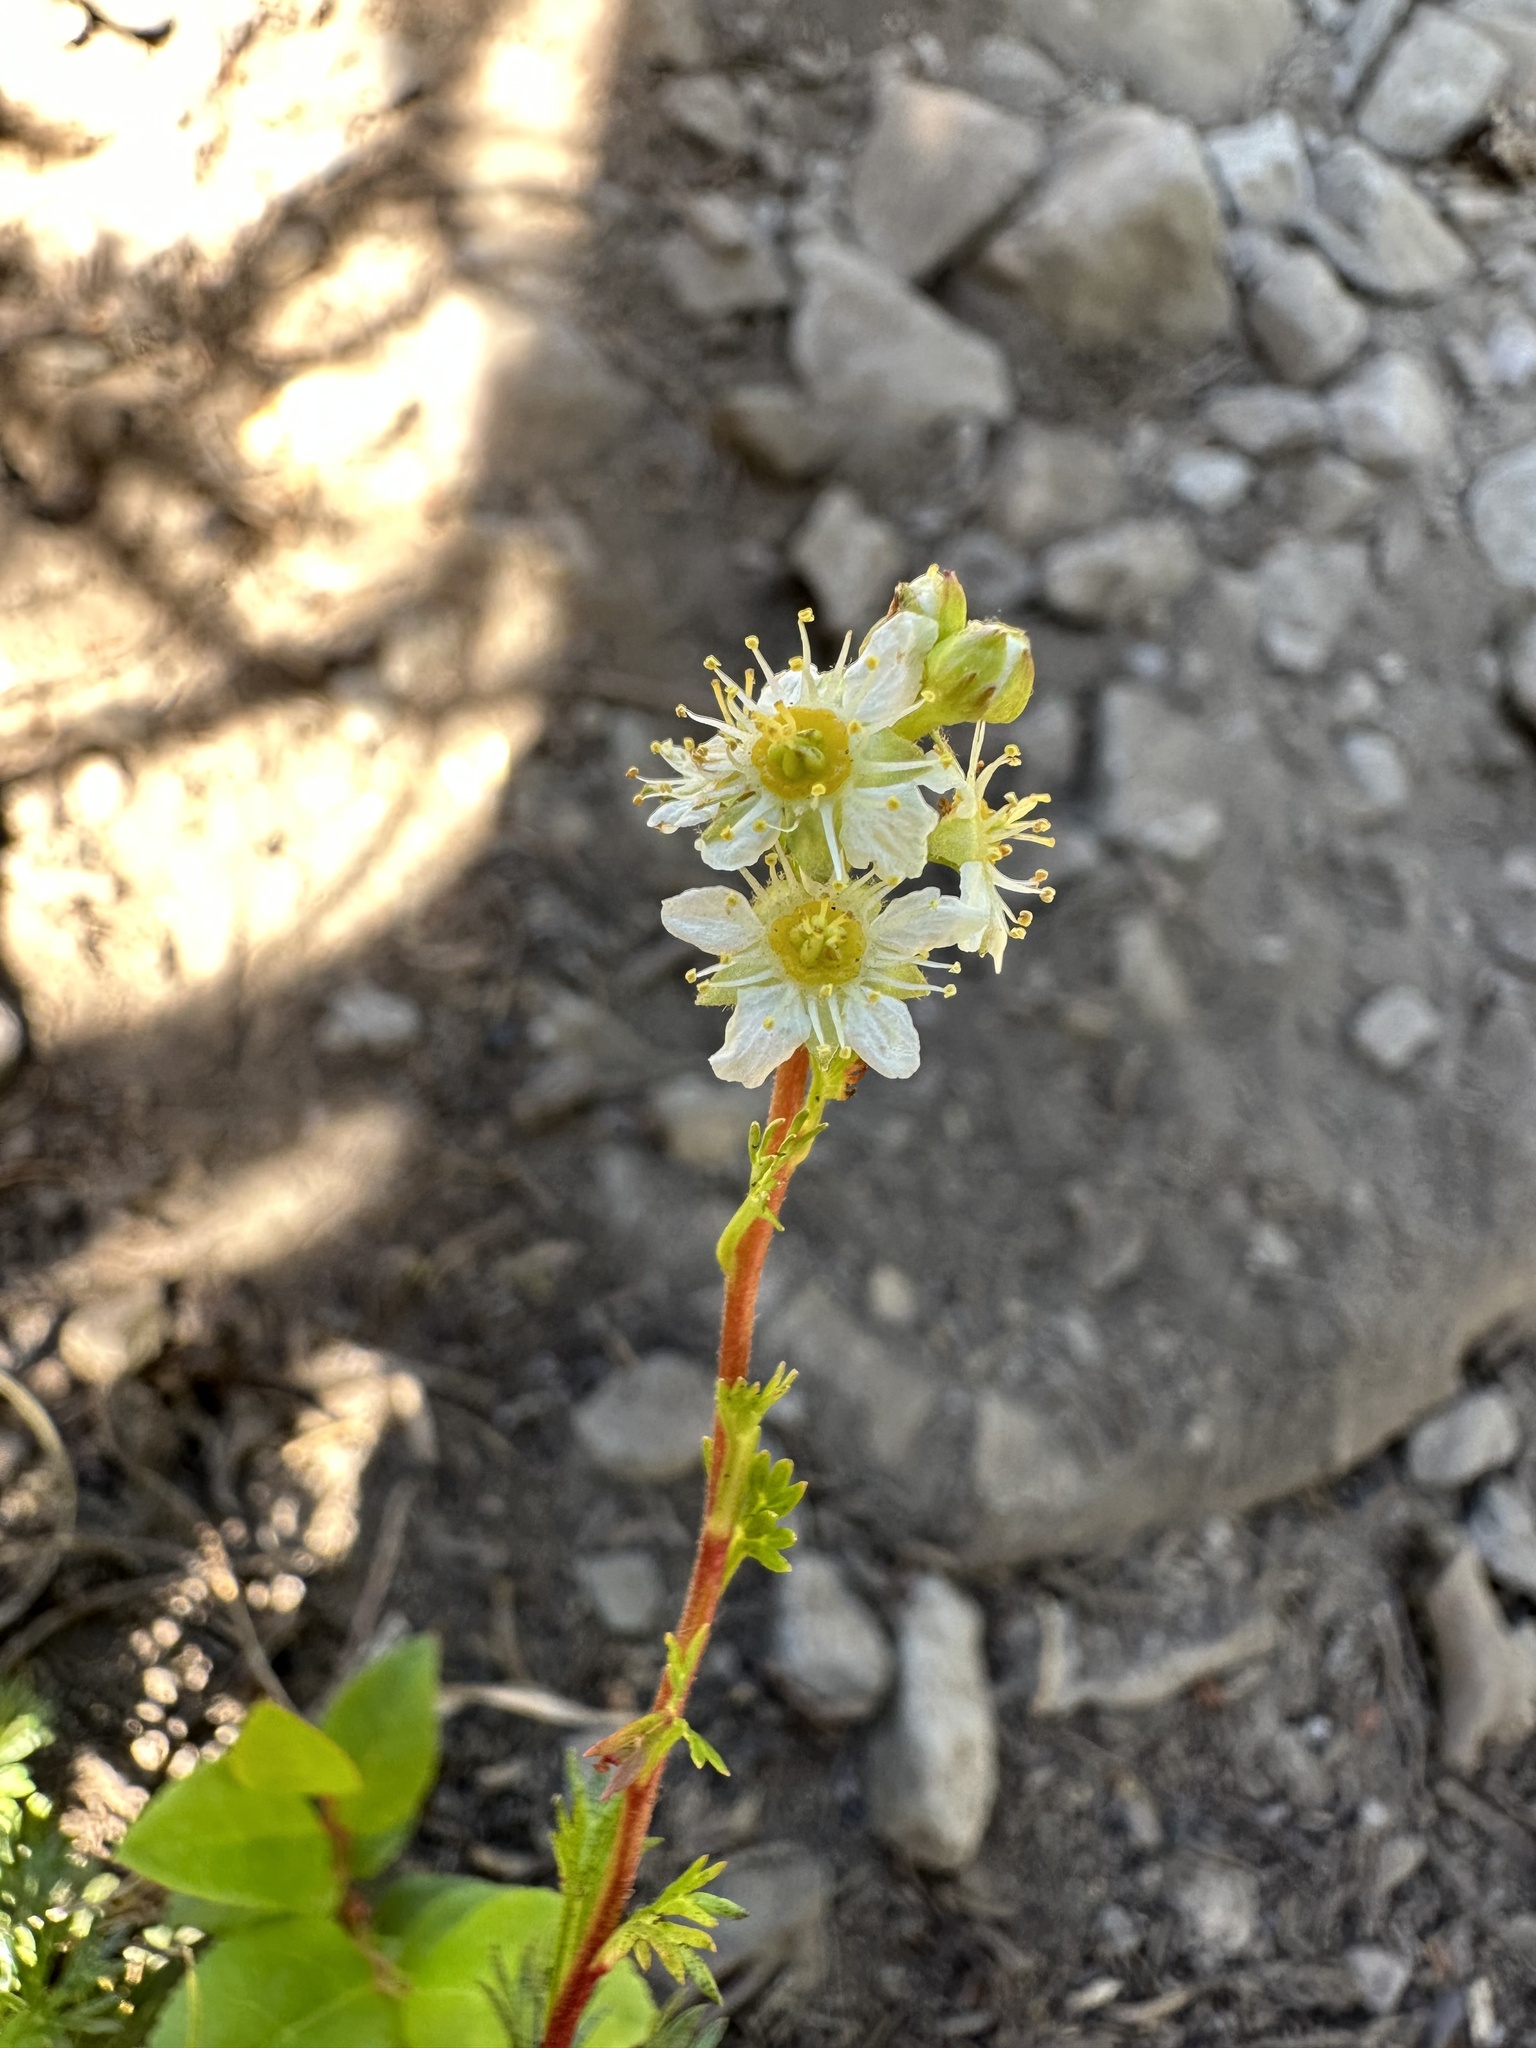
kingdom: Plantae
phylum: Tracheophyta
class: Magnoliopsida
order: Rosales
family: Rosaceae
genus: Luetkea
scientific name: Luetkea pectinata
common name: Partridgefoot
